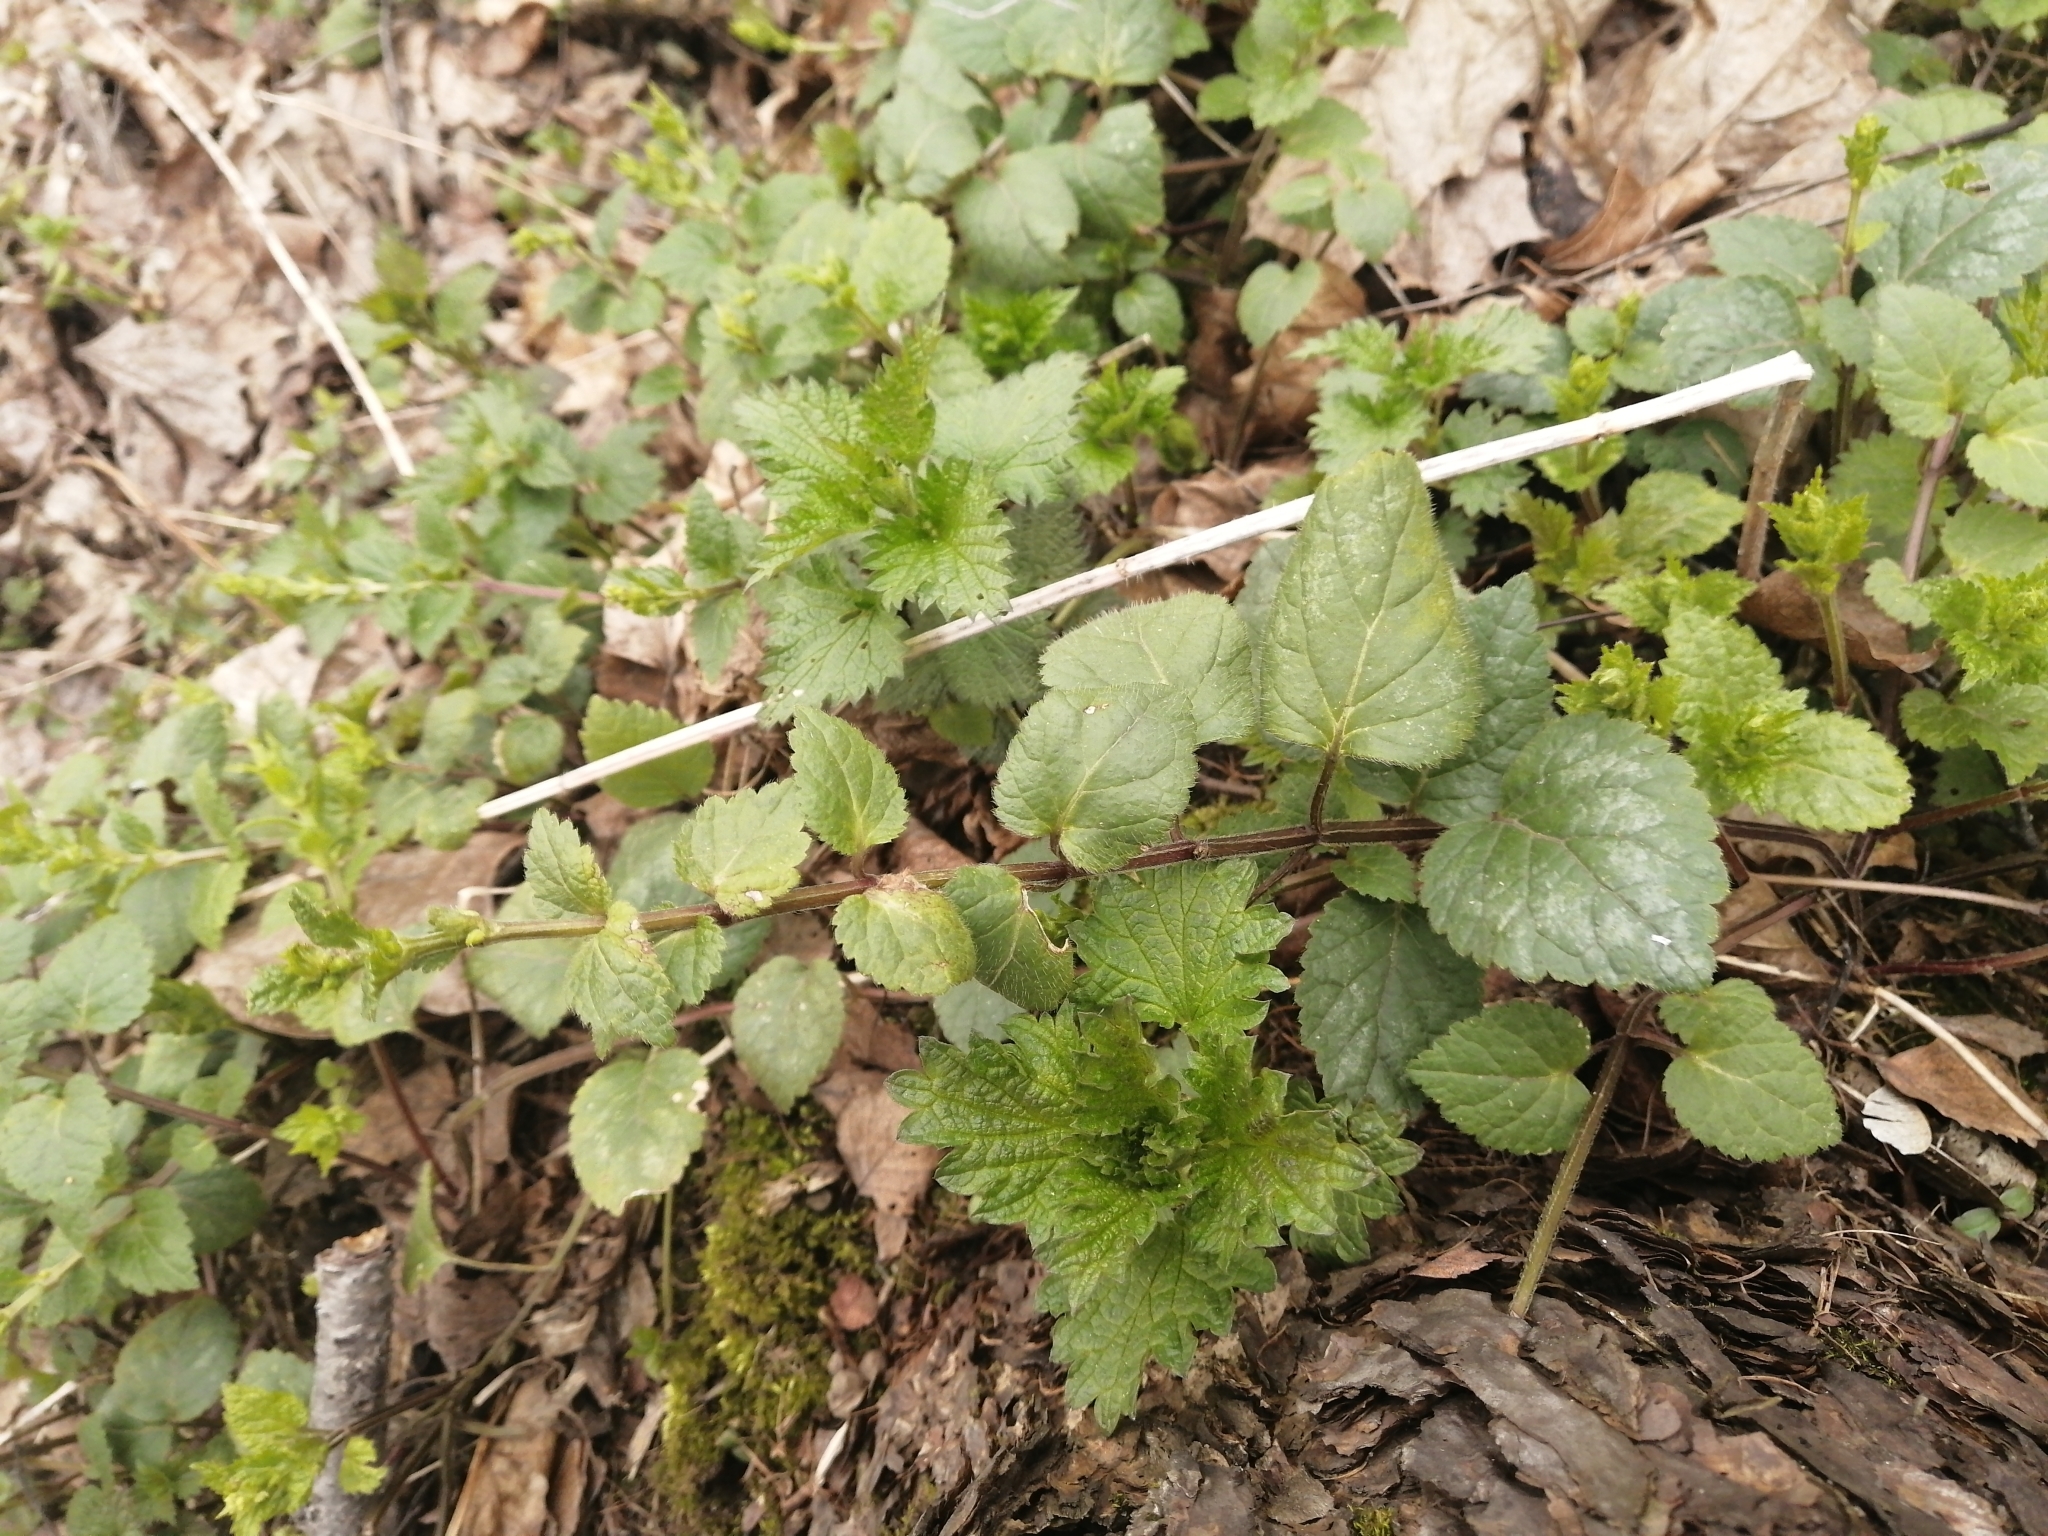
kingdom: Plantae
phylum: Tracheophyta
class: Magnoliopsida
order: Lamiales
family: Lamiaceae
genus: Lamium
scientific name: Lamium galeobdolon
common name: Yellow archangel
